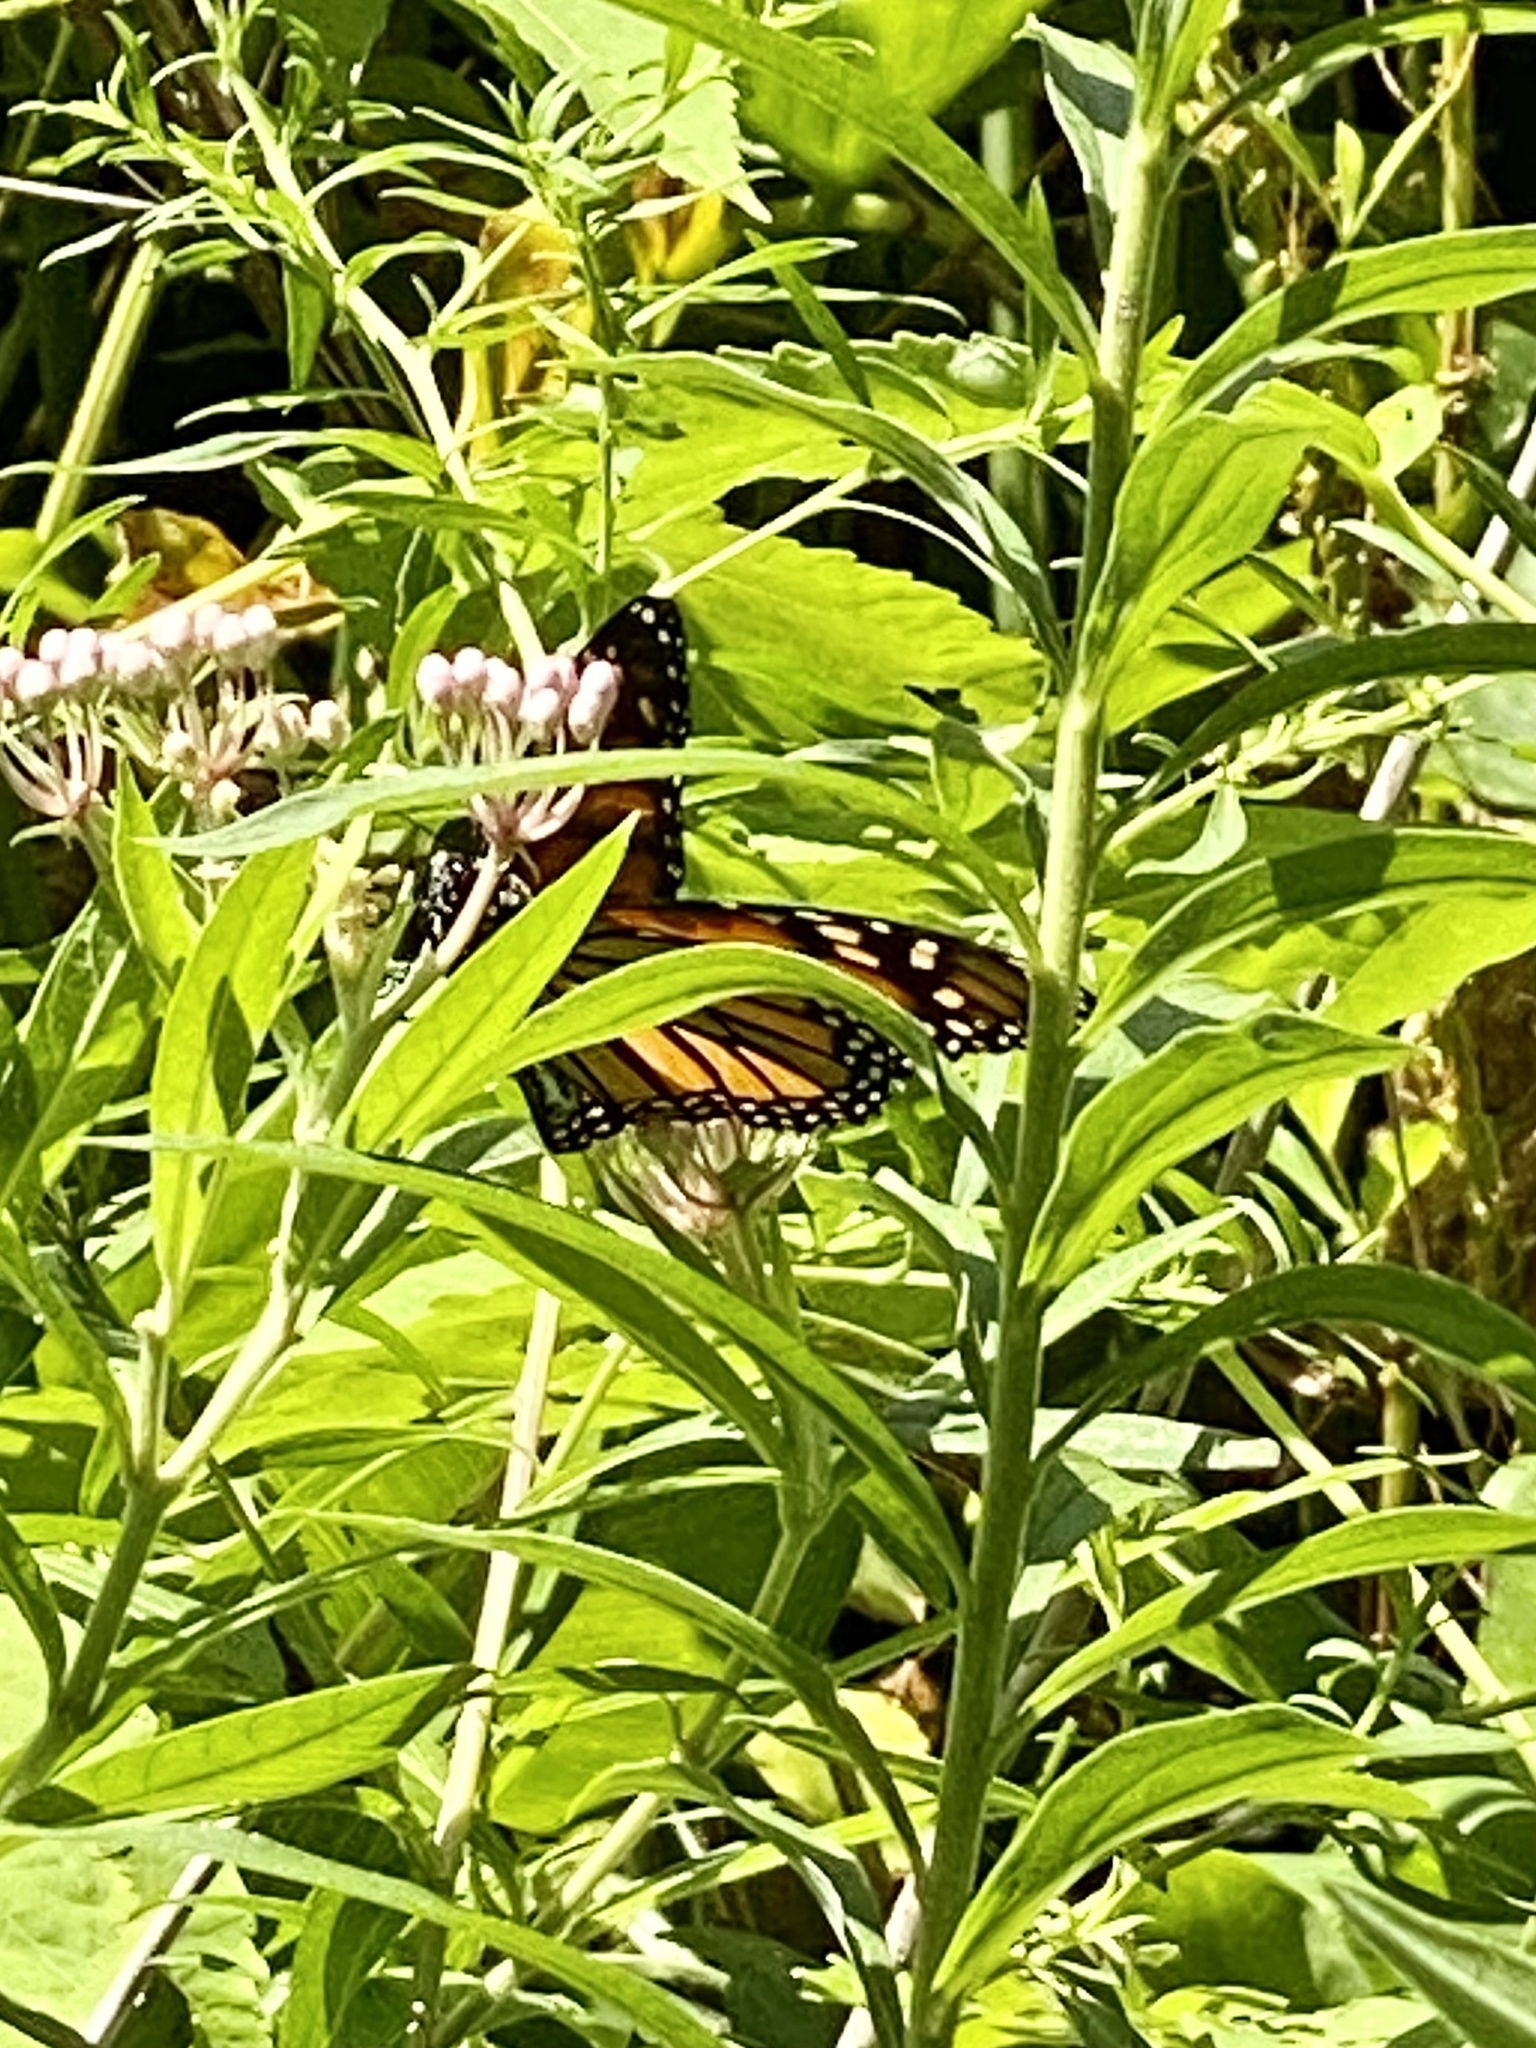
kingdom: Animalia
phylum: Arthropoda
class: Insecta
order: Lepidoptera
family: Nymphalidae
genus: Danaus
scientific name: Danaus plexippus
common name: Monarch
